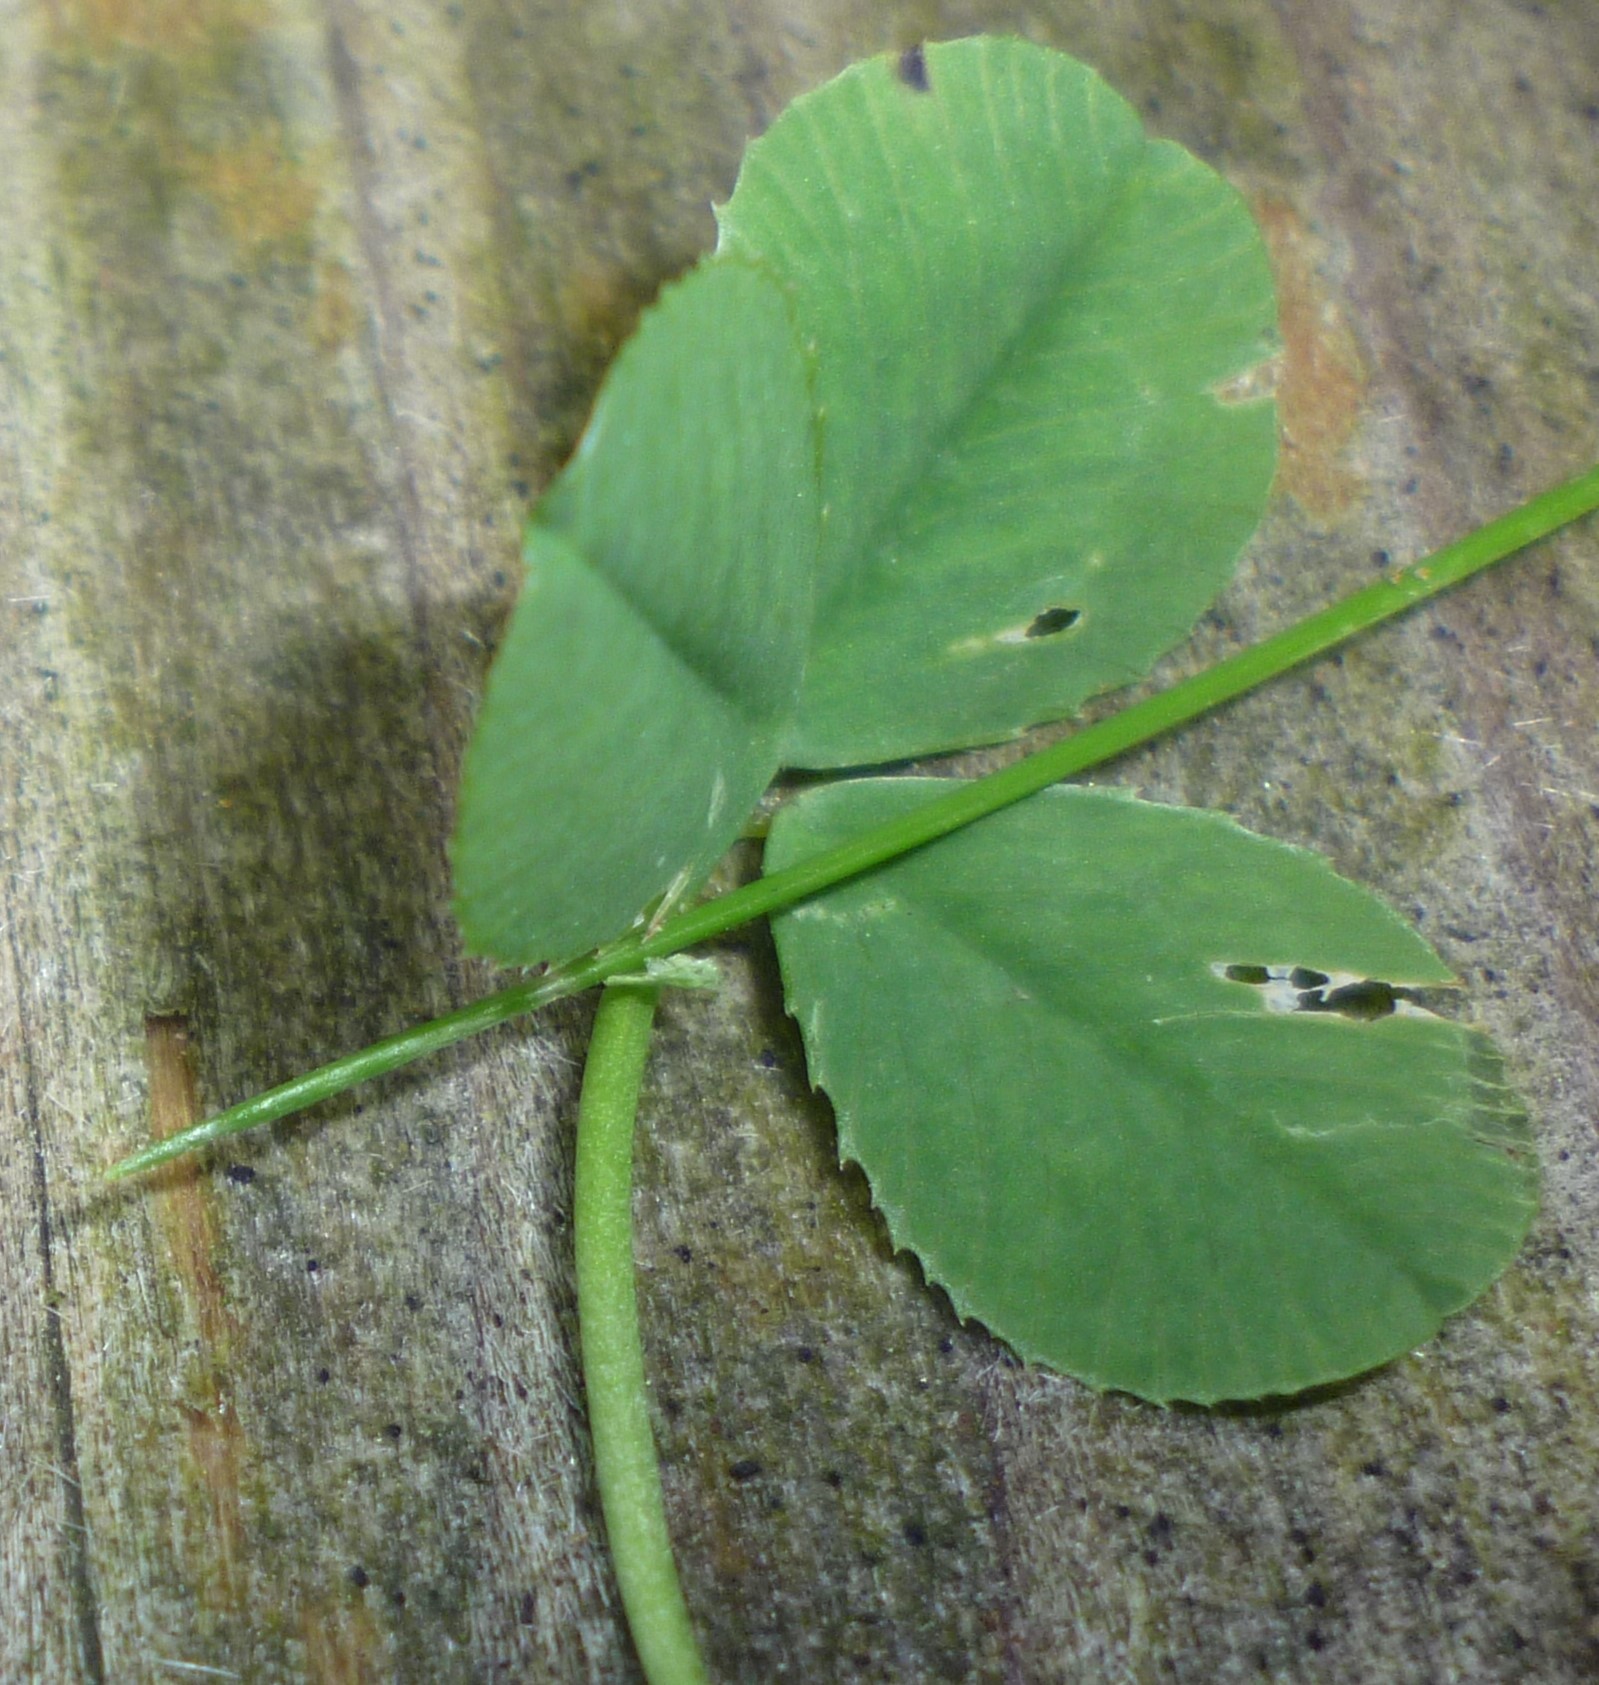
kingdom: Plantae
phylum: Tracheophyta
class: Magnoliopsida
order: Fabales
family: Fabaceae
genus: Trifolium
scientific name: Trifolium repens
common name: White clover
